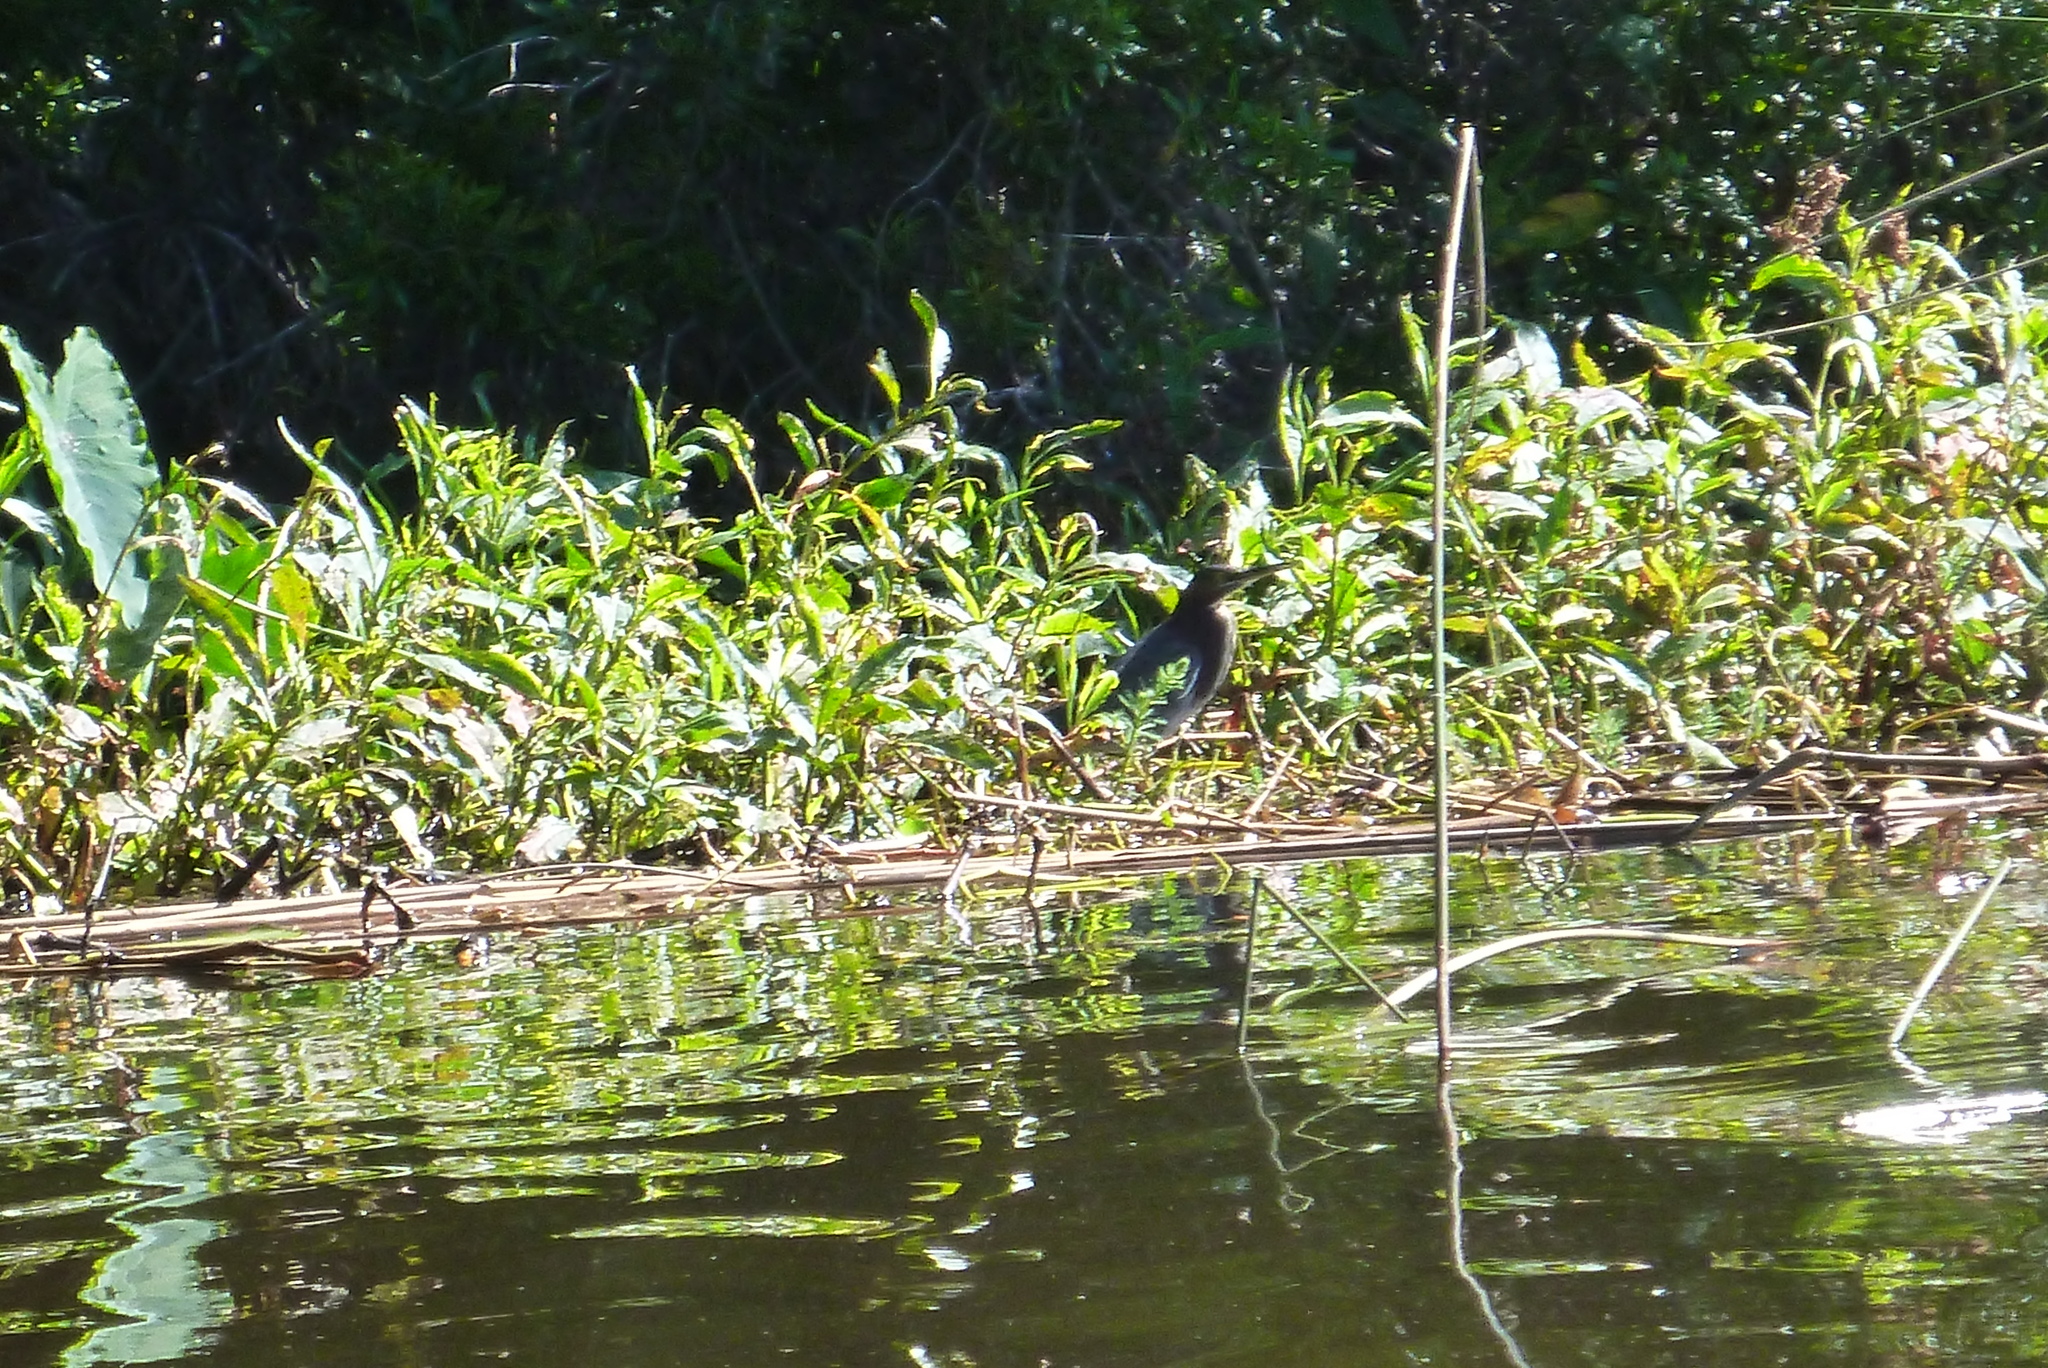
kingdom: Animalia
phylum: Chordata
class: Aves
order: Pelecaniformes
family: Ardeidae
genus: Butorides
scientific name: Butorides virescens
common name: Green heron
